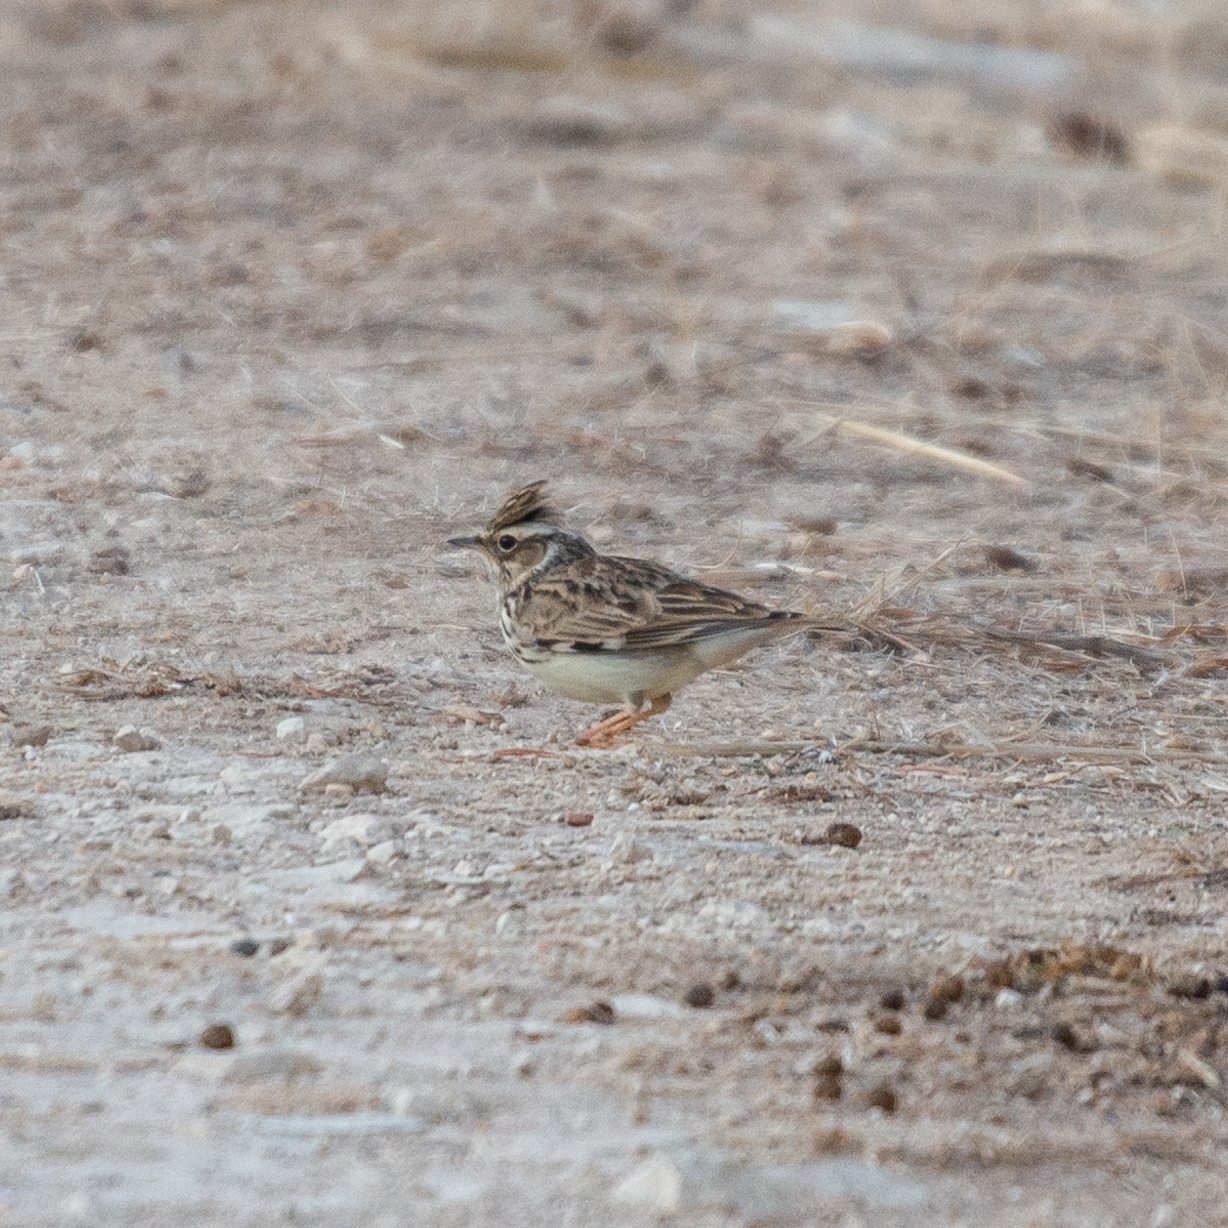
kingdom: Animalia
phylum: Chordata
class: Aves
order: Passeriformes
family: Alaudidae
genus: Lullula
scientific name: Lullula arborea
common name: Woodlark
